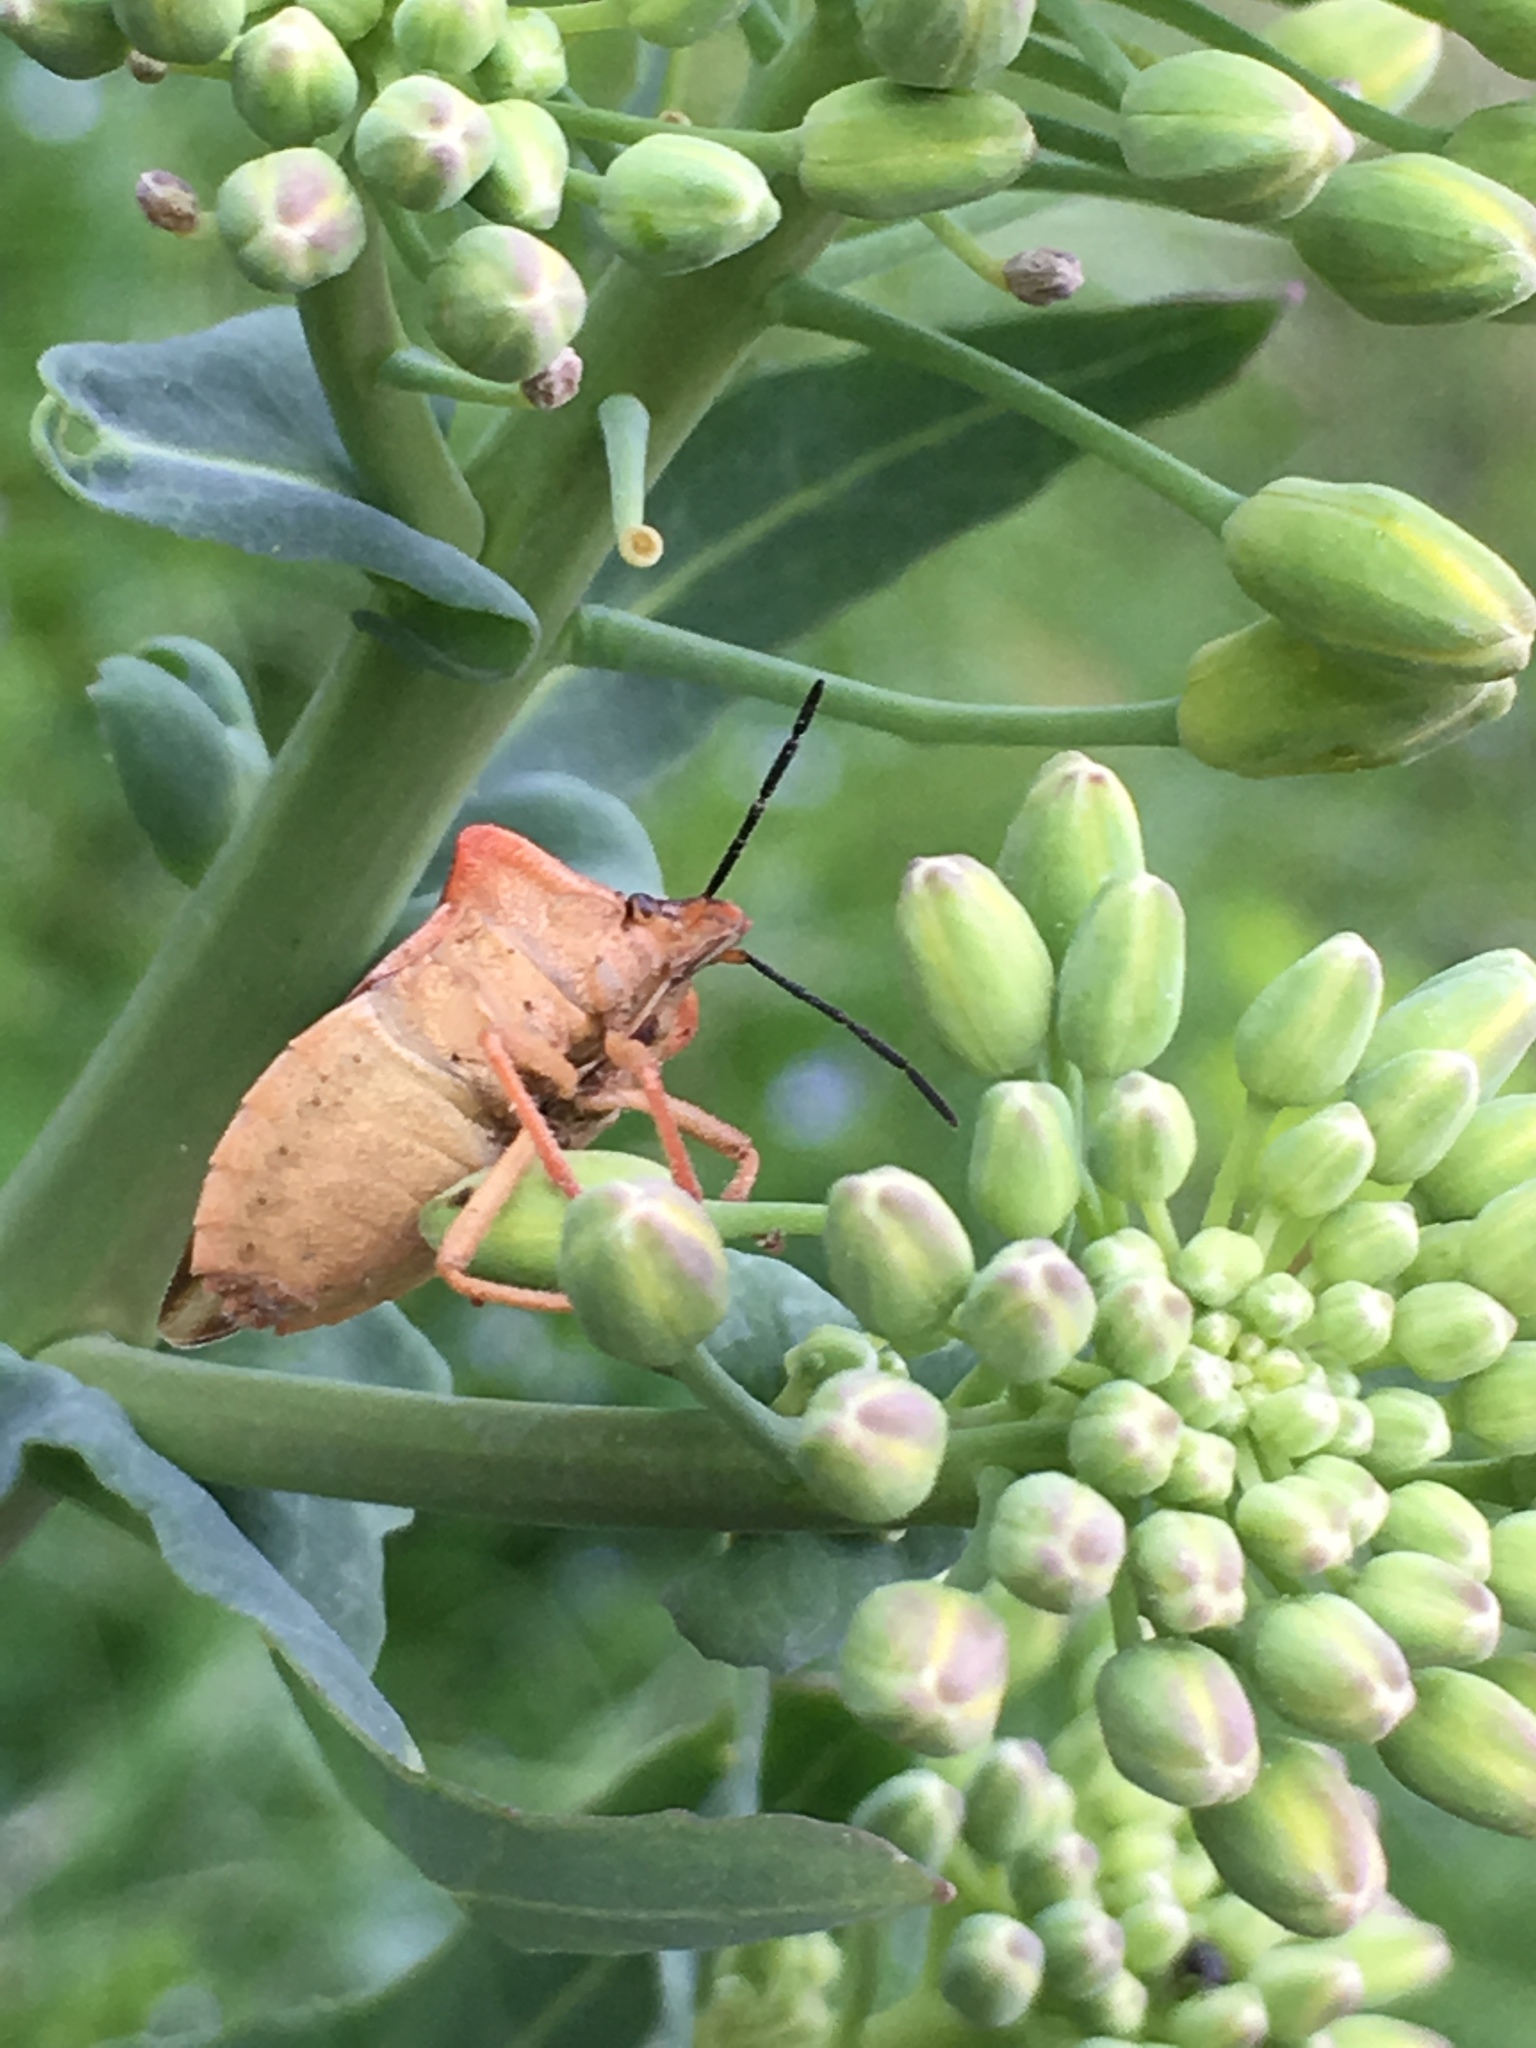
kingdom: Animalia
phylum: Arthropoda
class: Insecta
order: Hemiptera
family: Pentatomidae
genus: Carpocoris
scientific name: Carpocoris fuscispinus
